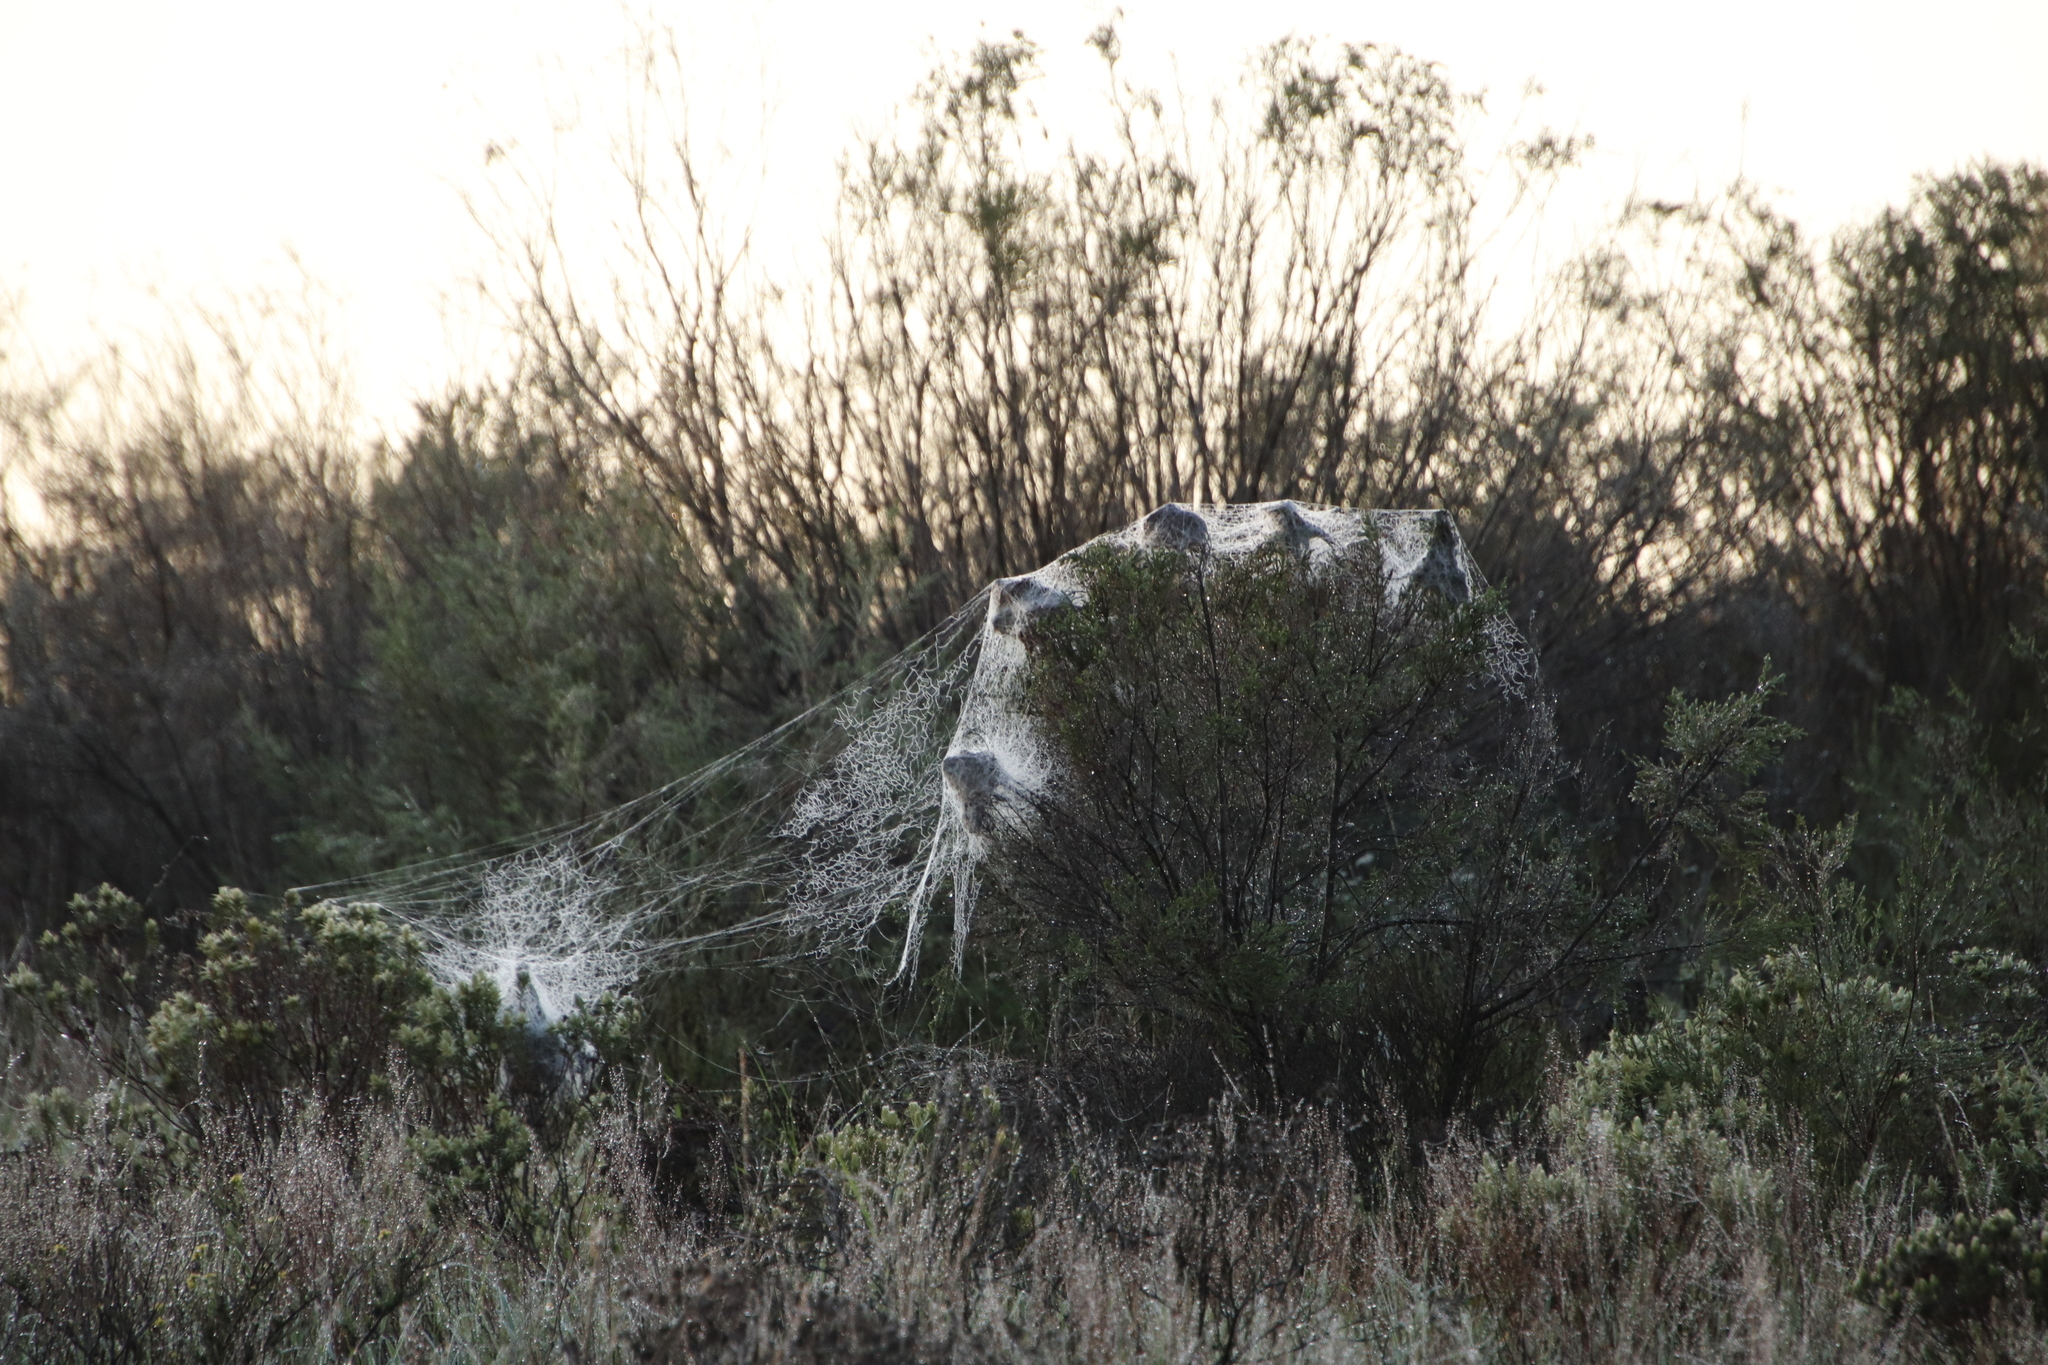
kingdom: Animalia
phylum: Arthropoda
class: Arachnida
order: Araneae
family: Eresidae
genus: Stegodyphus
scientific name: Stegodyphus dumicola
